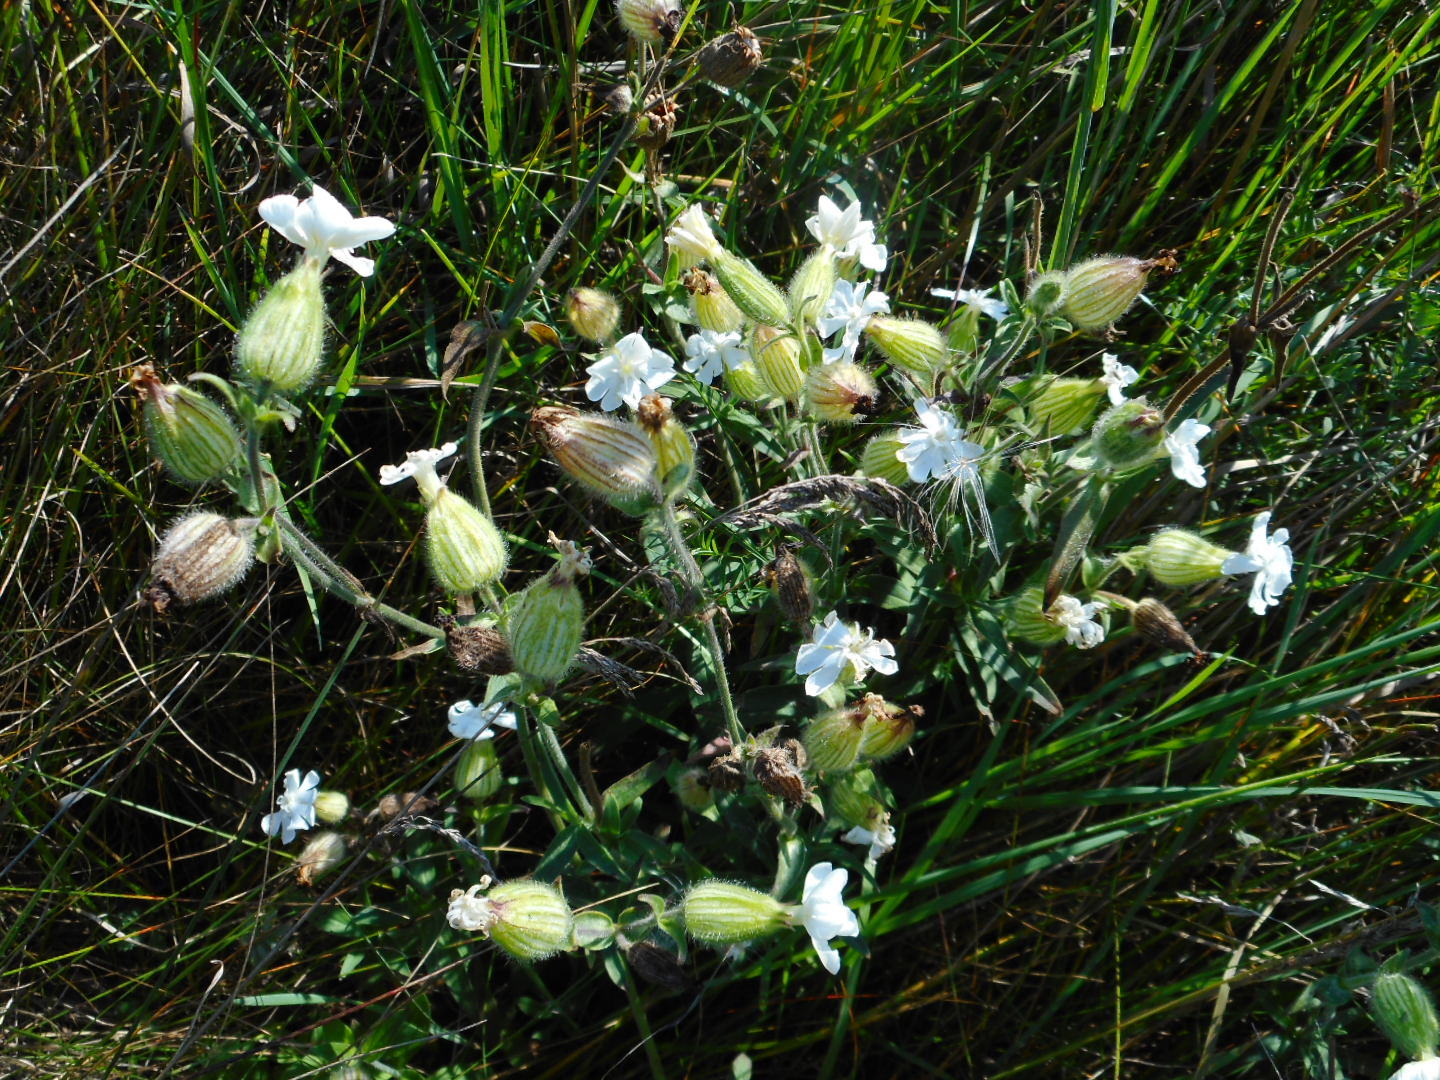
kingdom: Plantae
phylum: Tracheophyta
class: Magnoliopsida
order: Caryophyllales
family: Caryophyllaceae
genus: Silene
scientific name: Silene latifolia
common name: White campion
